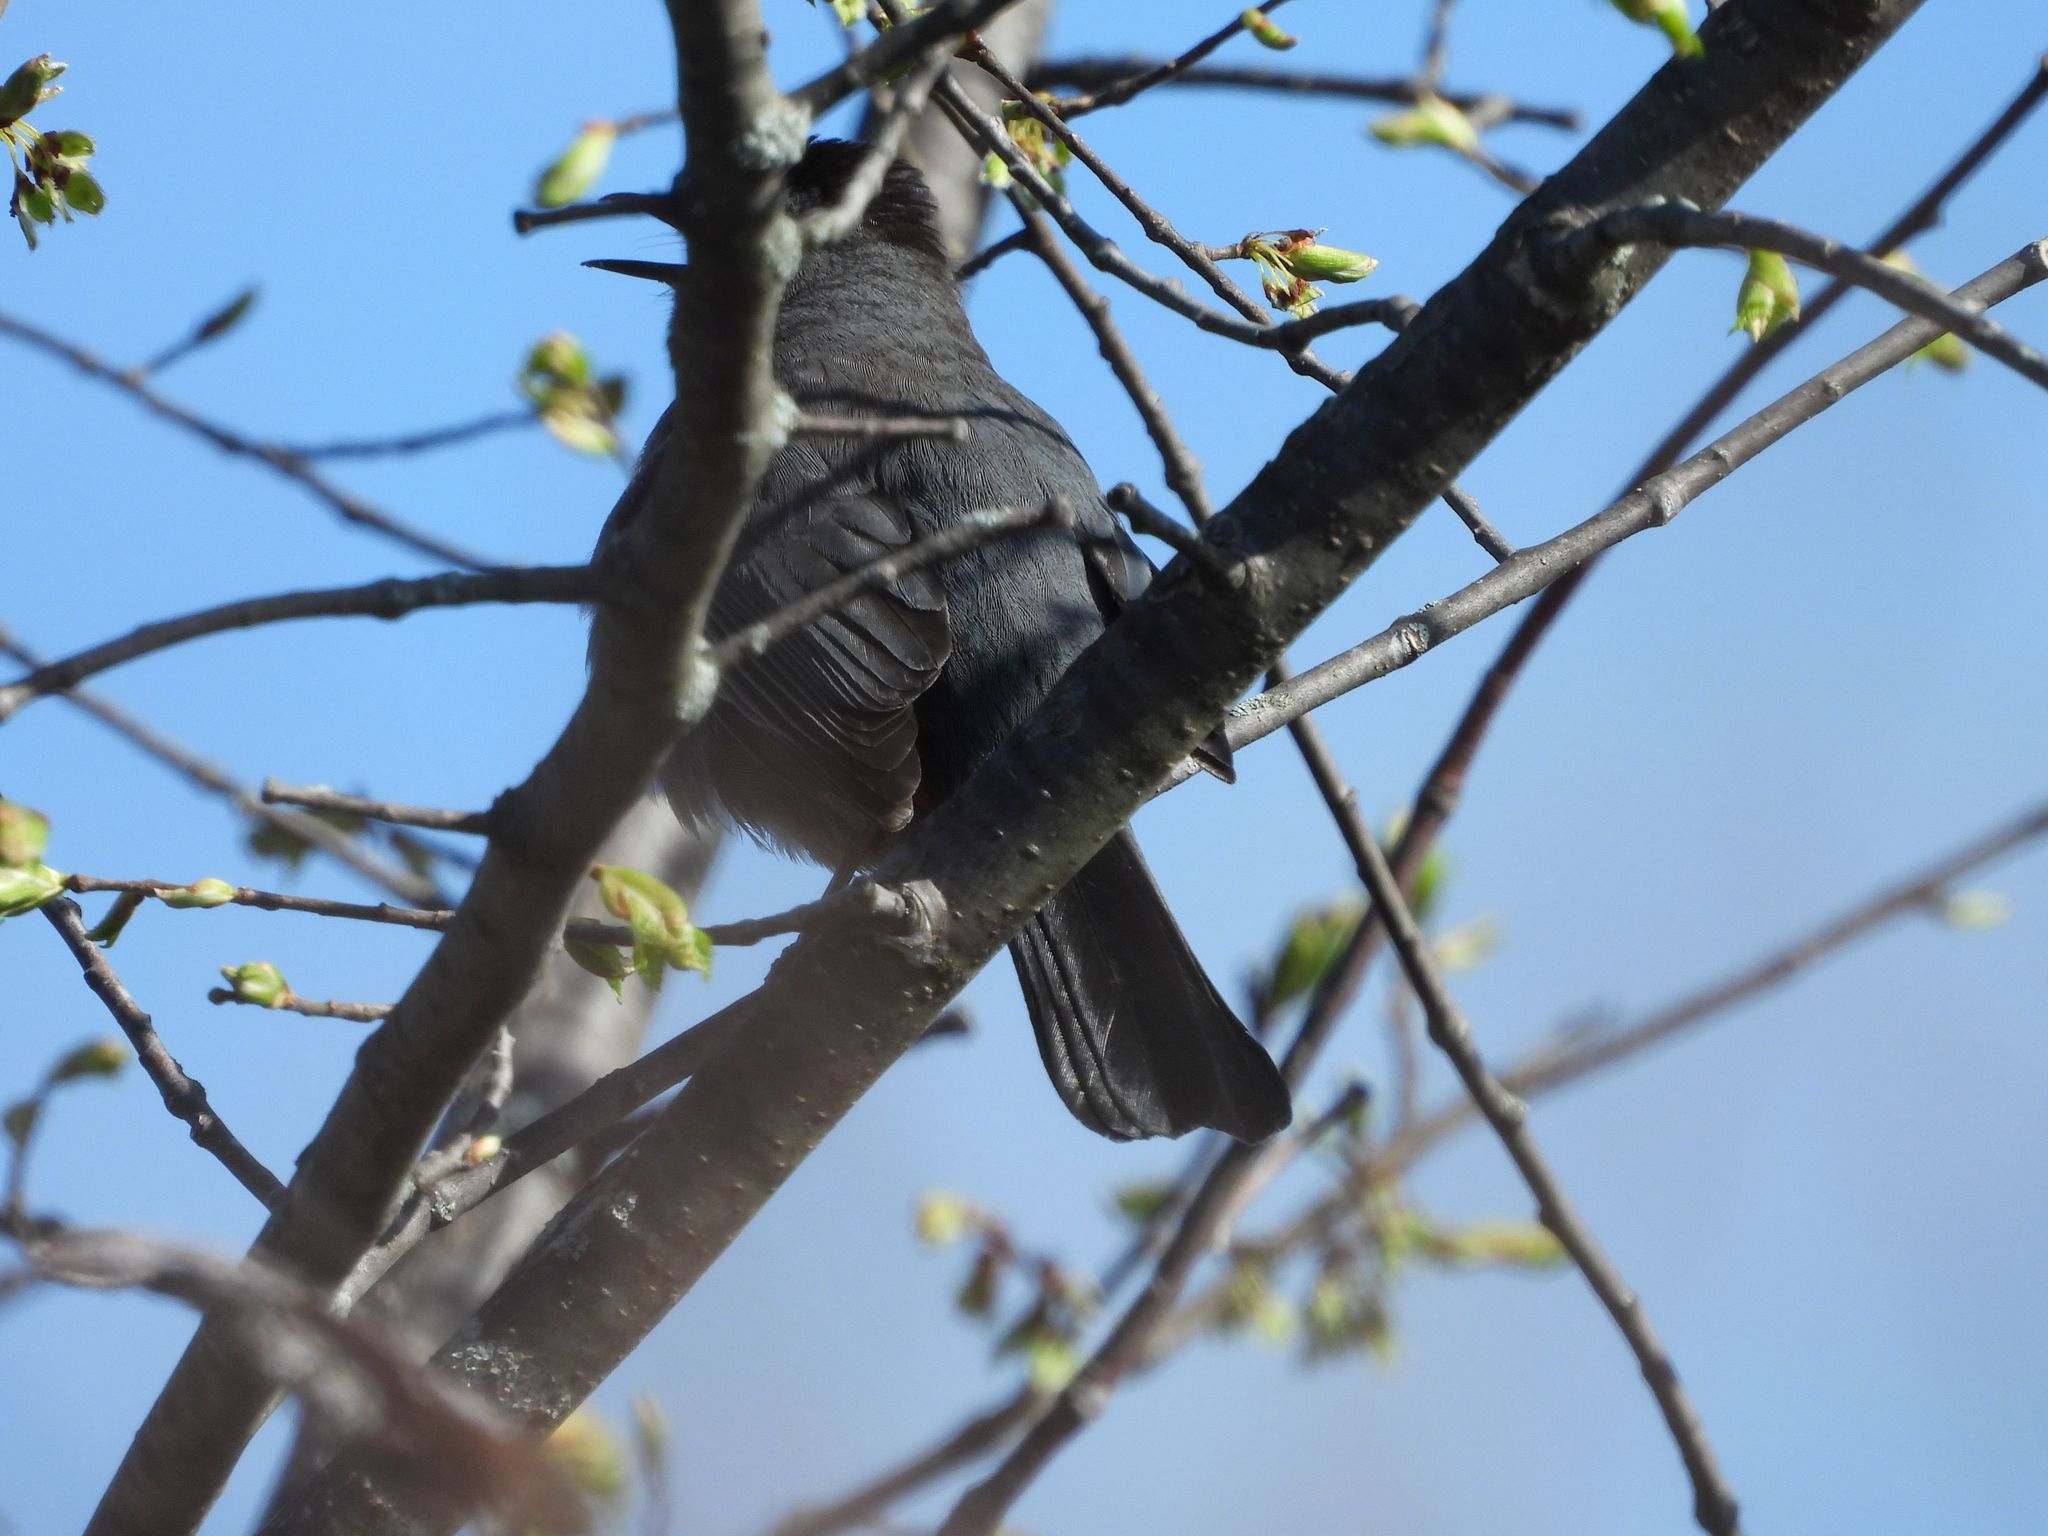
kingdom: Animalia
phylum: Chordata
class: Aves
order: Passeriformes
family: Mimidae
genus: Dumetella
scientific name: Dumetella carolinensis
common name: Gray catbird
